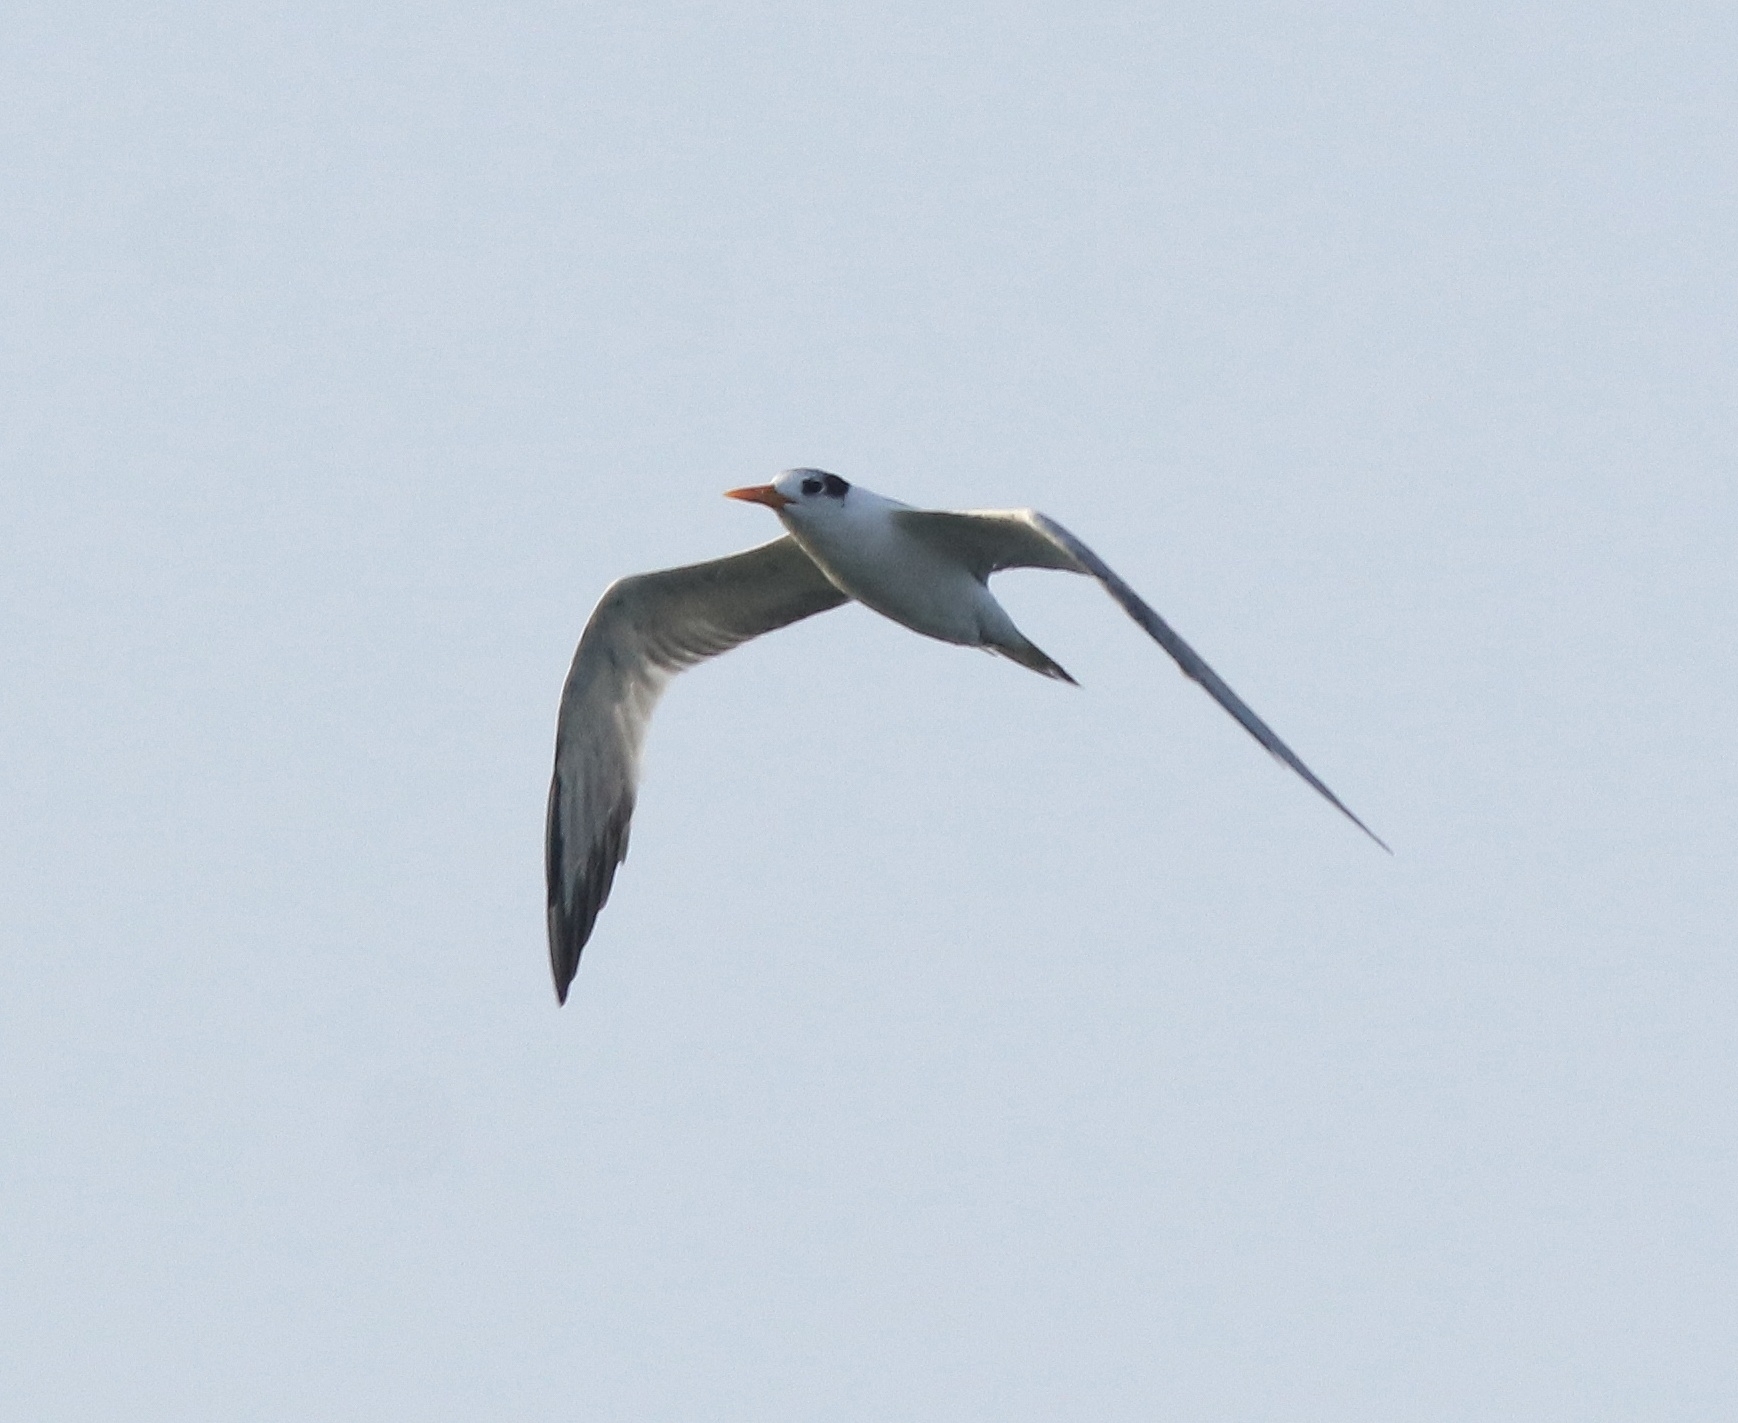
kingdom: Animalia
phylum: Chordata
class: Aves
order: Charadriiformes
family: Laridae
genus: Thalasseus
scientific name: Thalasseus bengalensis
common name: Lesser crested tern
